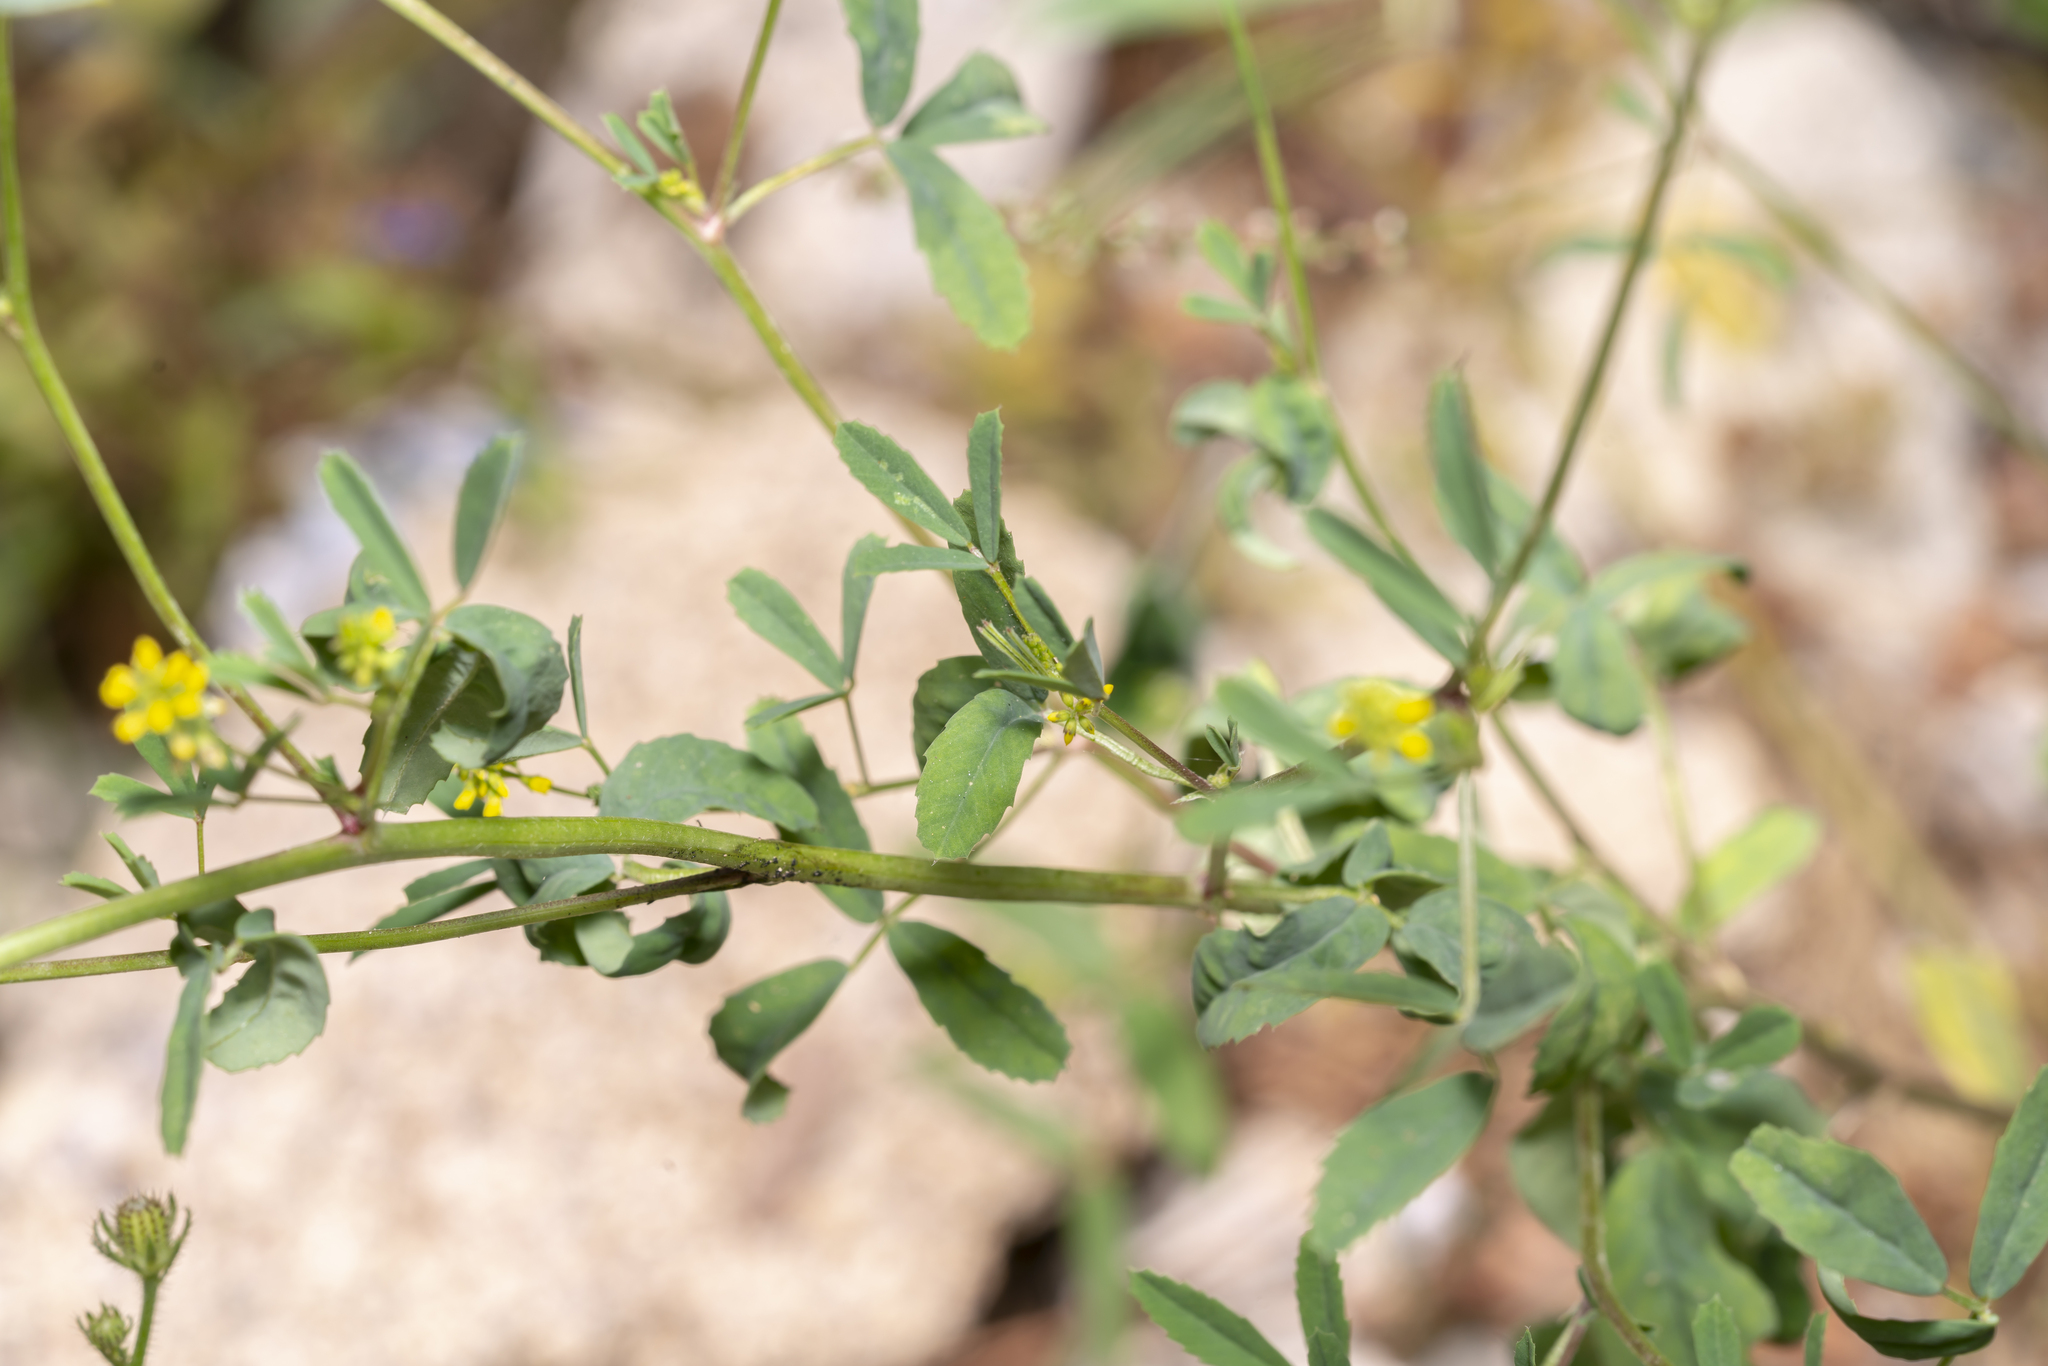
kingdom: Plantae
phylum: Tracheophyta
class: Magnoliopsida
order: Fabales
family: Fabaceae
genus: Melilotus
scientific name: Melilotus indicus
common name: Small melilot
